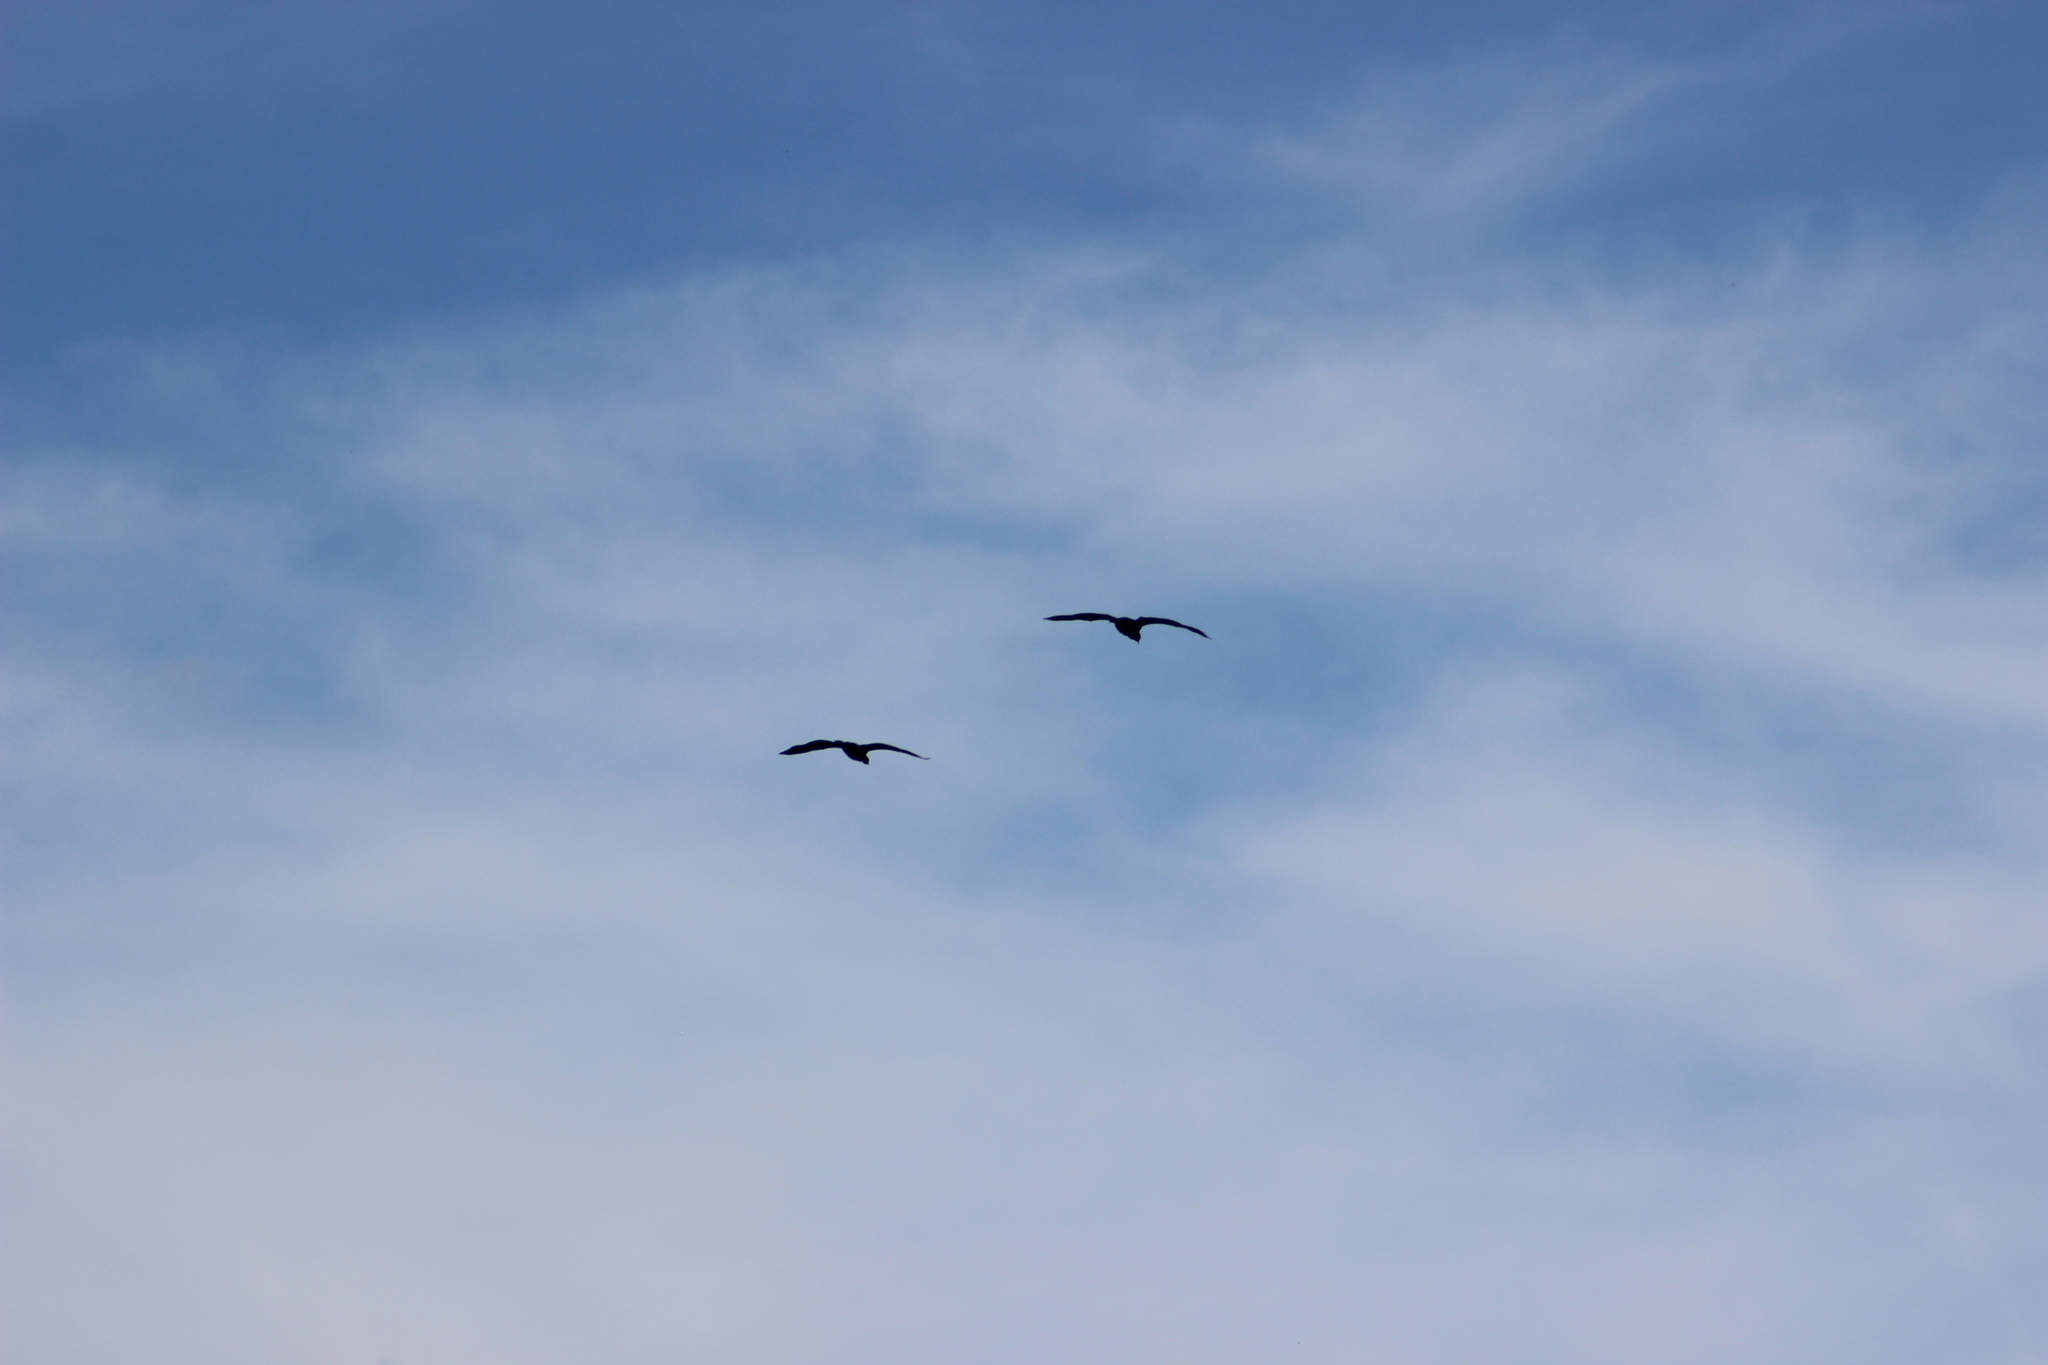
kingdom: Animalia
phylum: Chordata
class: Aves
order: Suliformes
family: Phalacrocoracidae
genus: Phalacrocorax
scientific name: Phalacrocorax carbo
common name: Great cormorant
